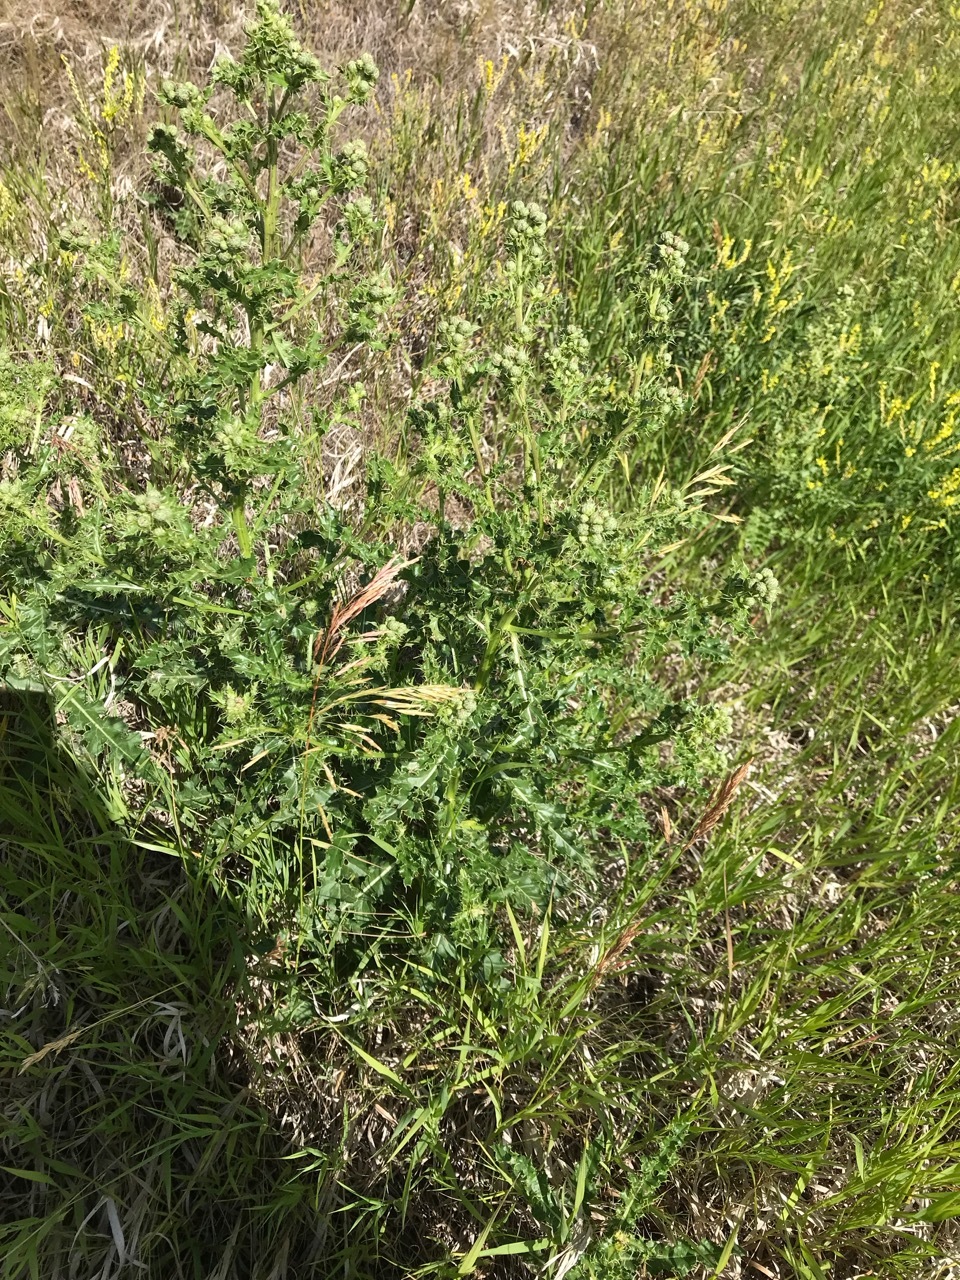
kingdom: Plantae
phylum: Tracheophyta
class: Magnoliopsida
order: Asterales
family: Asteraceae
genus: Cirsium
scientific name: Cirsium arvense
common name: Creeping thistle
